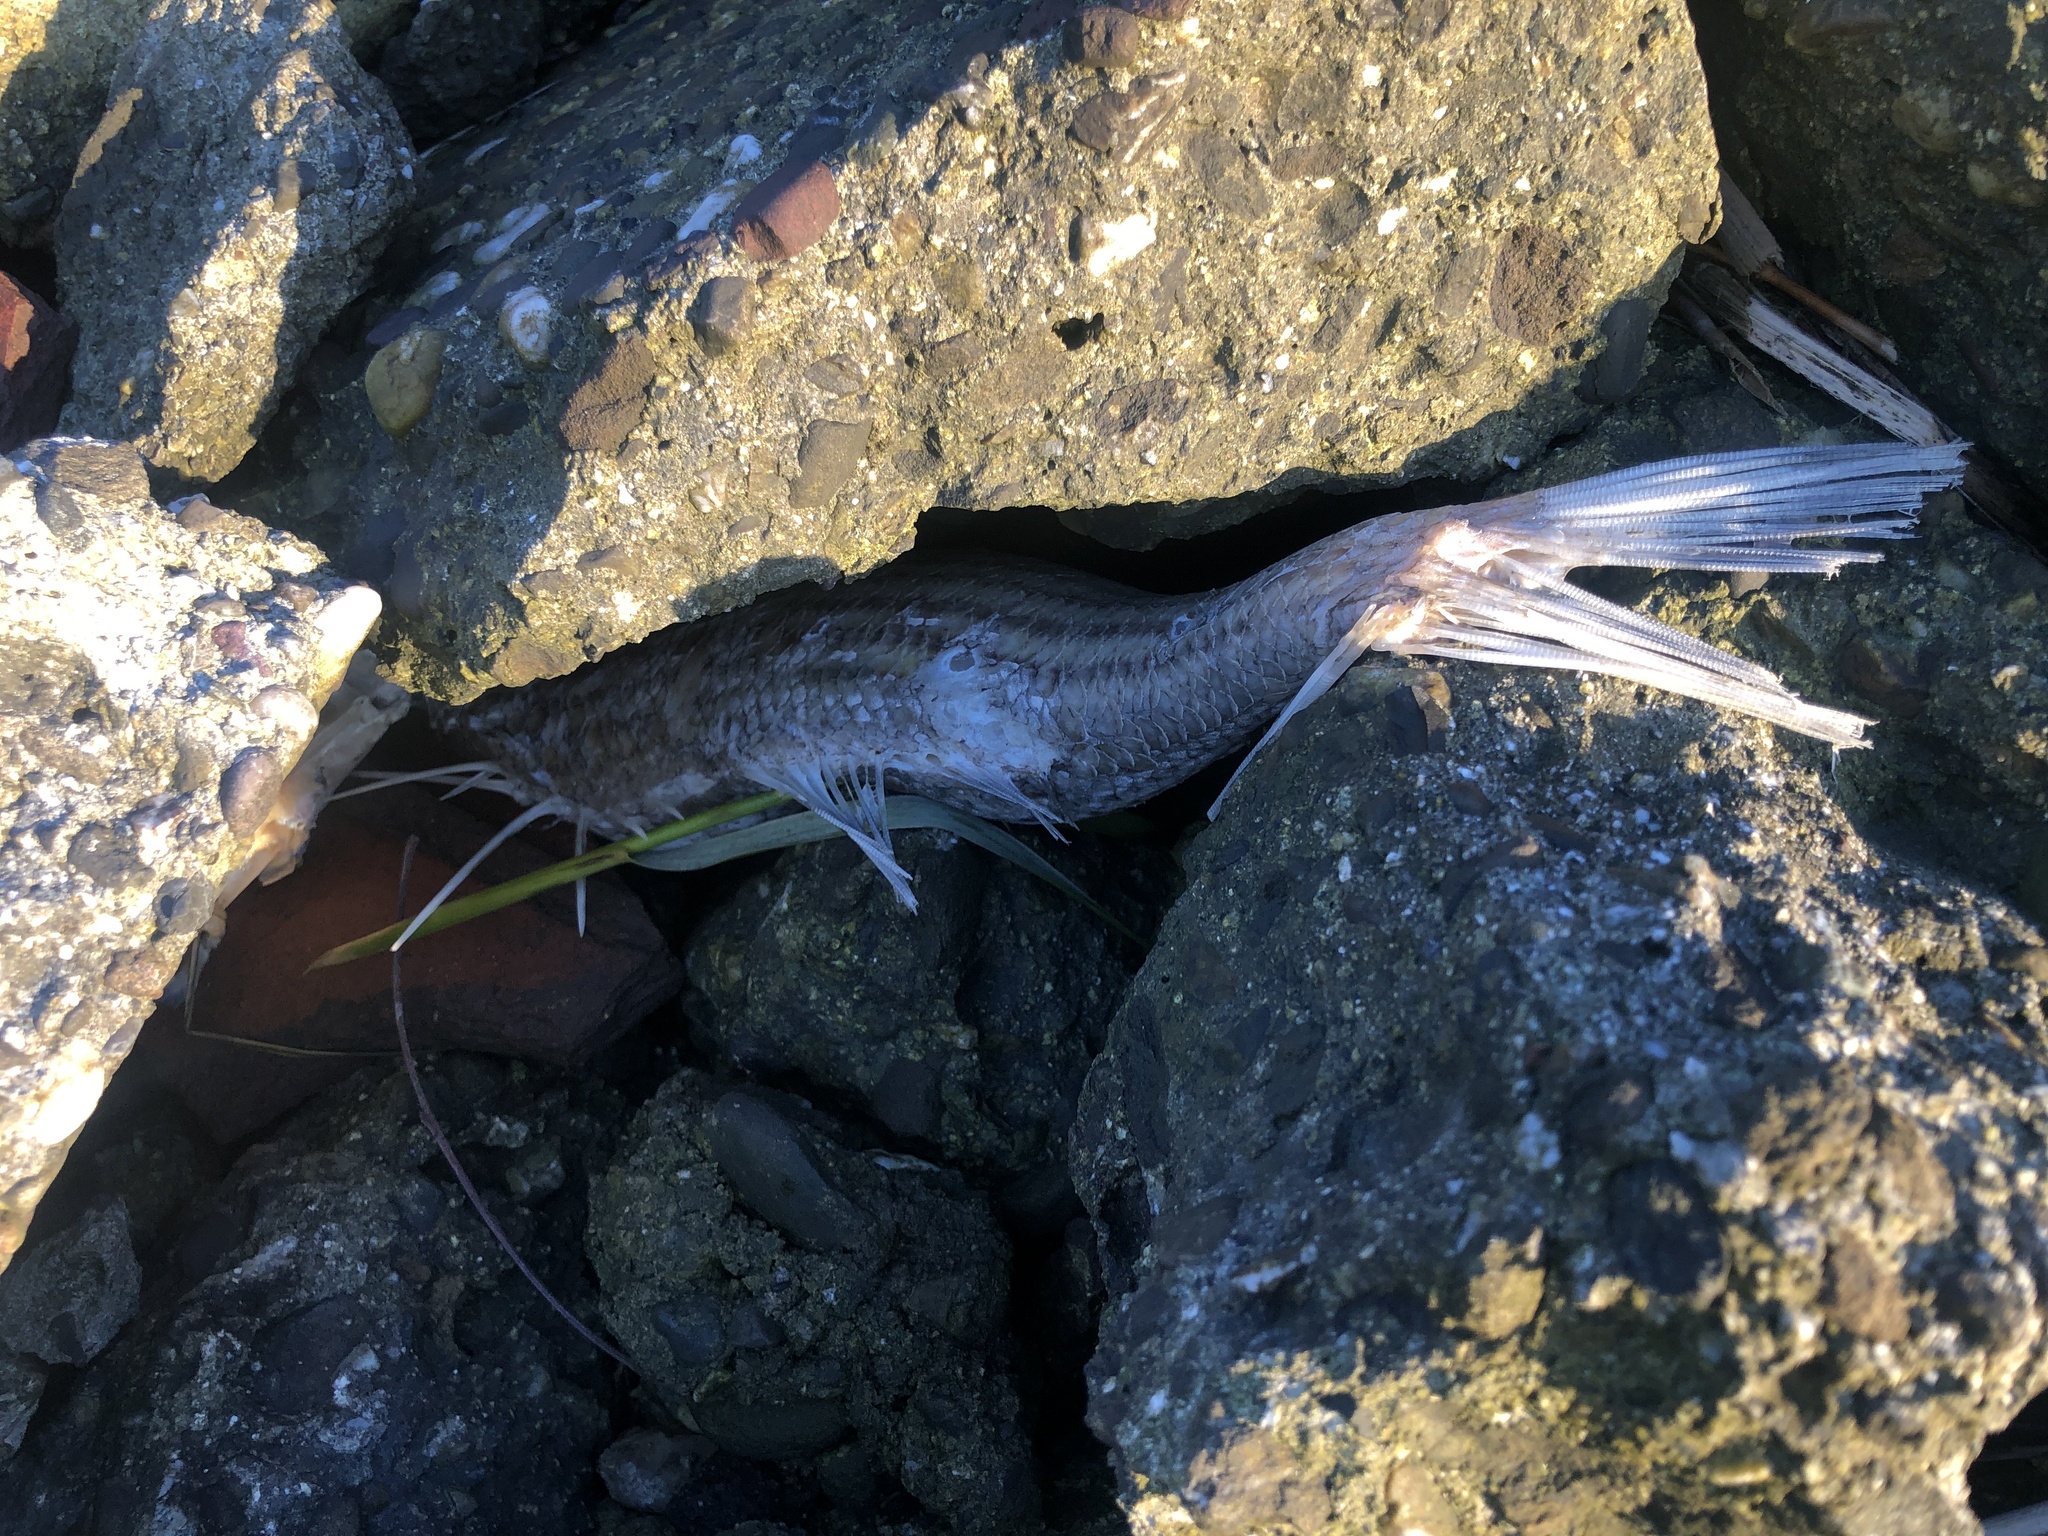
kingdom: Animalia
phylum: Chordata
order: Perciformes
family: Moronidae
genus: Morone
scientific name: Morone saxatilis
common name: Striped bass
